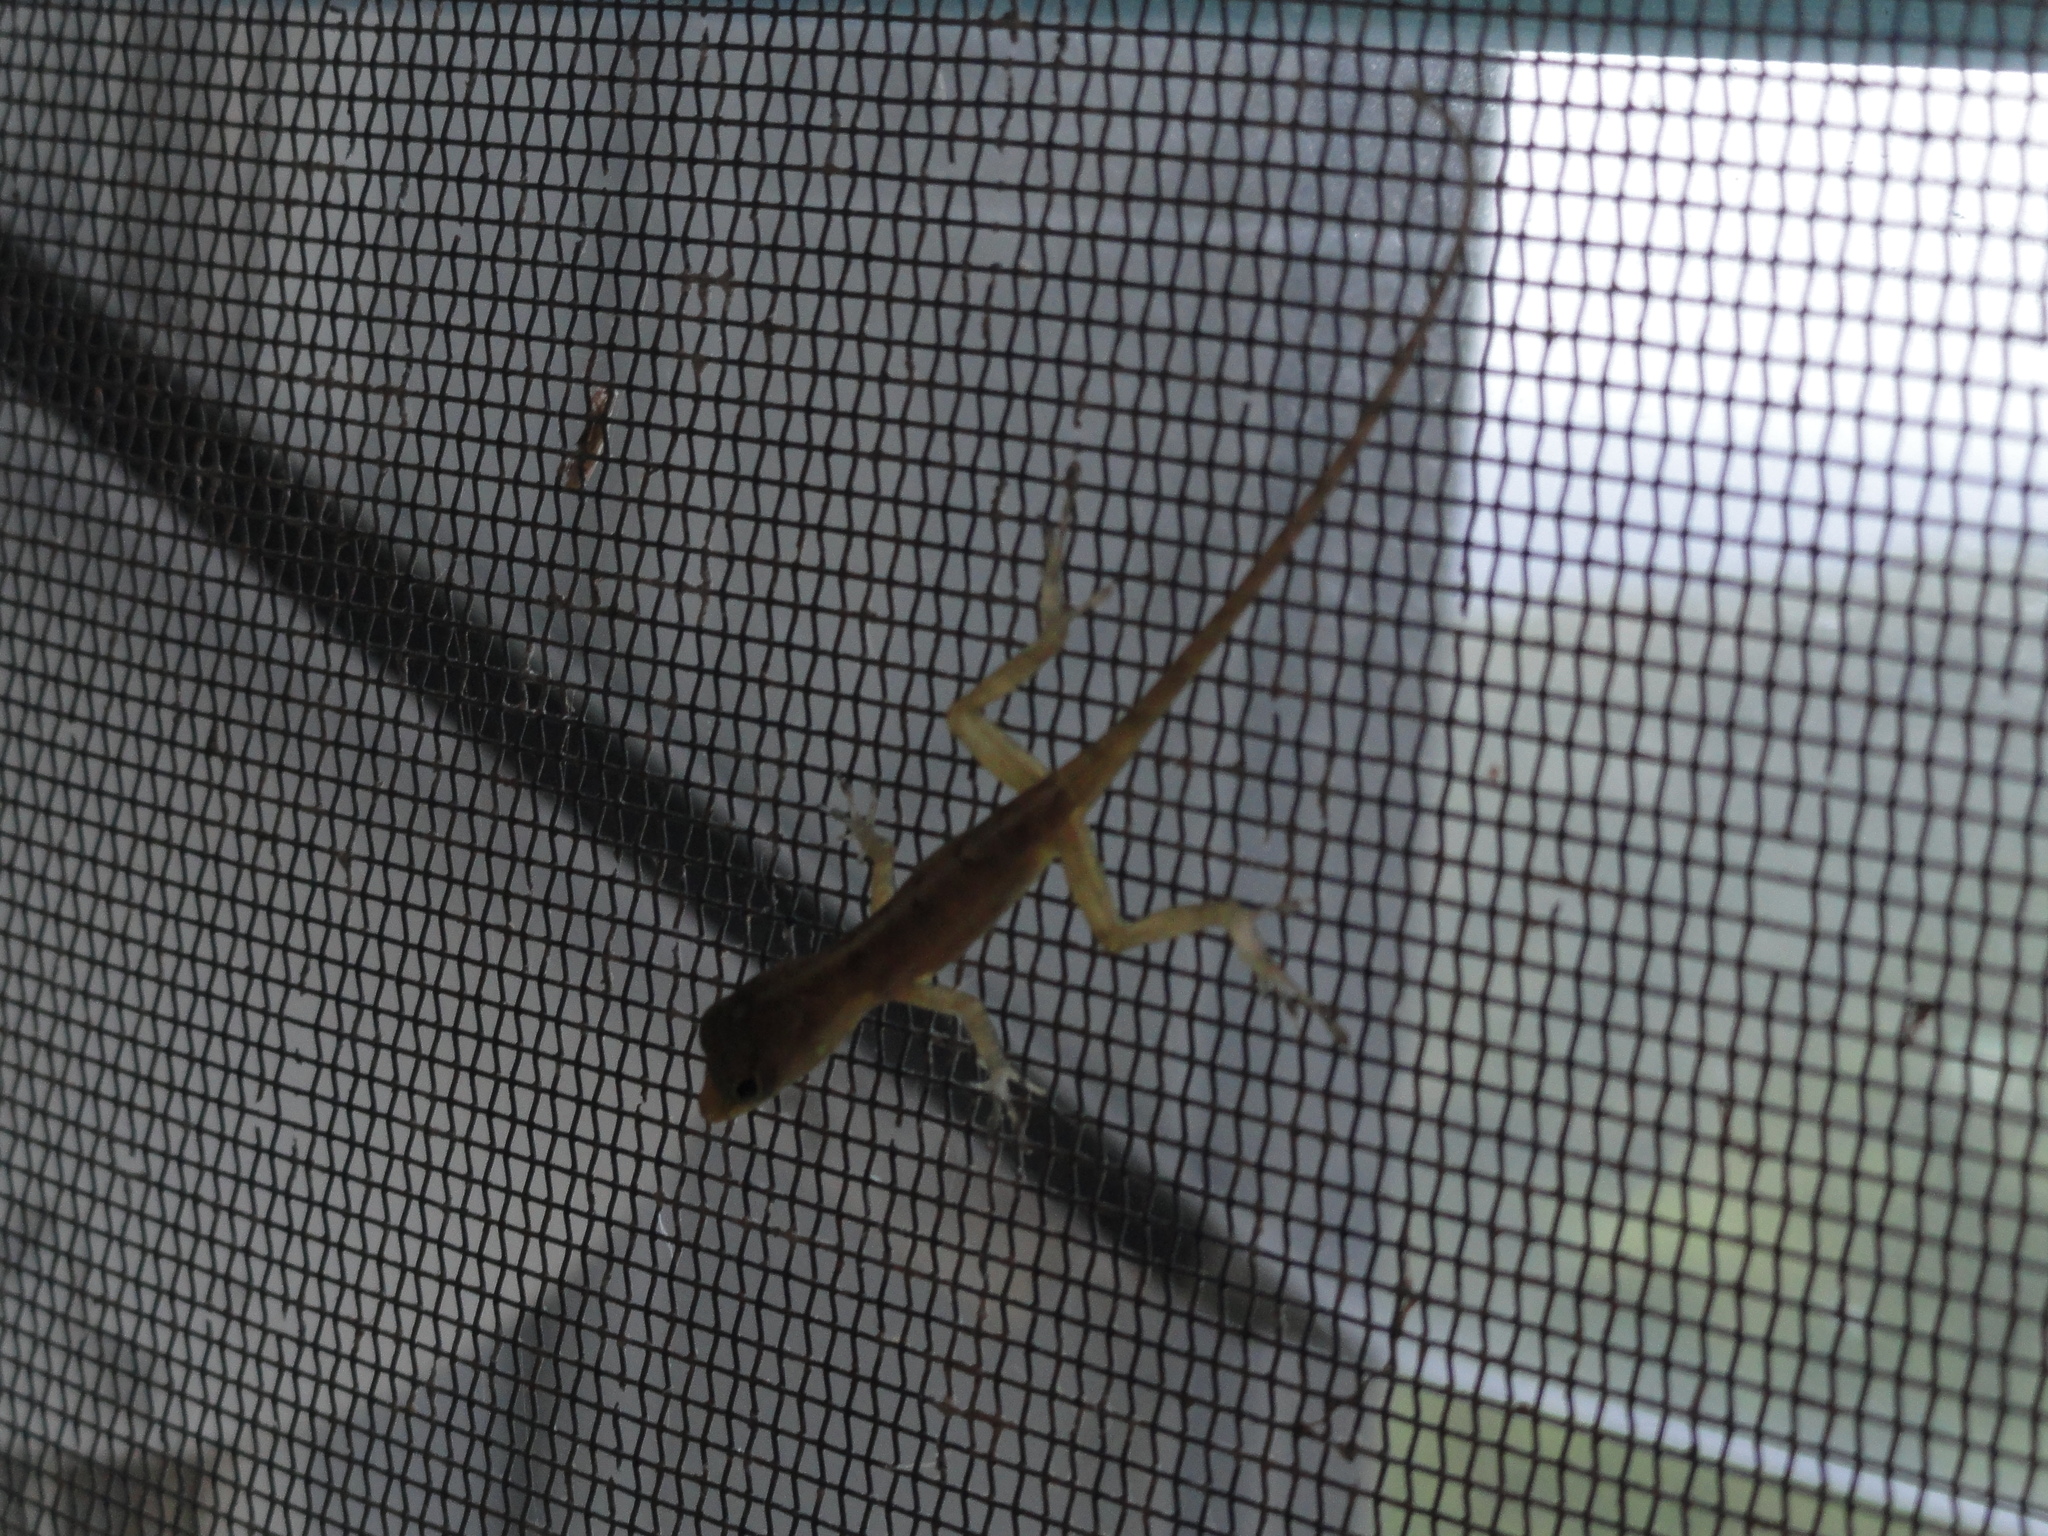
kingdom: Animalia
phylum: Chordata
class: Squamata
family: Dactyloidae
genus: Anolis
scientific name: Anolis acutus
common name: Saint croix's anole
